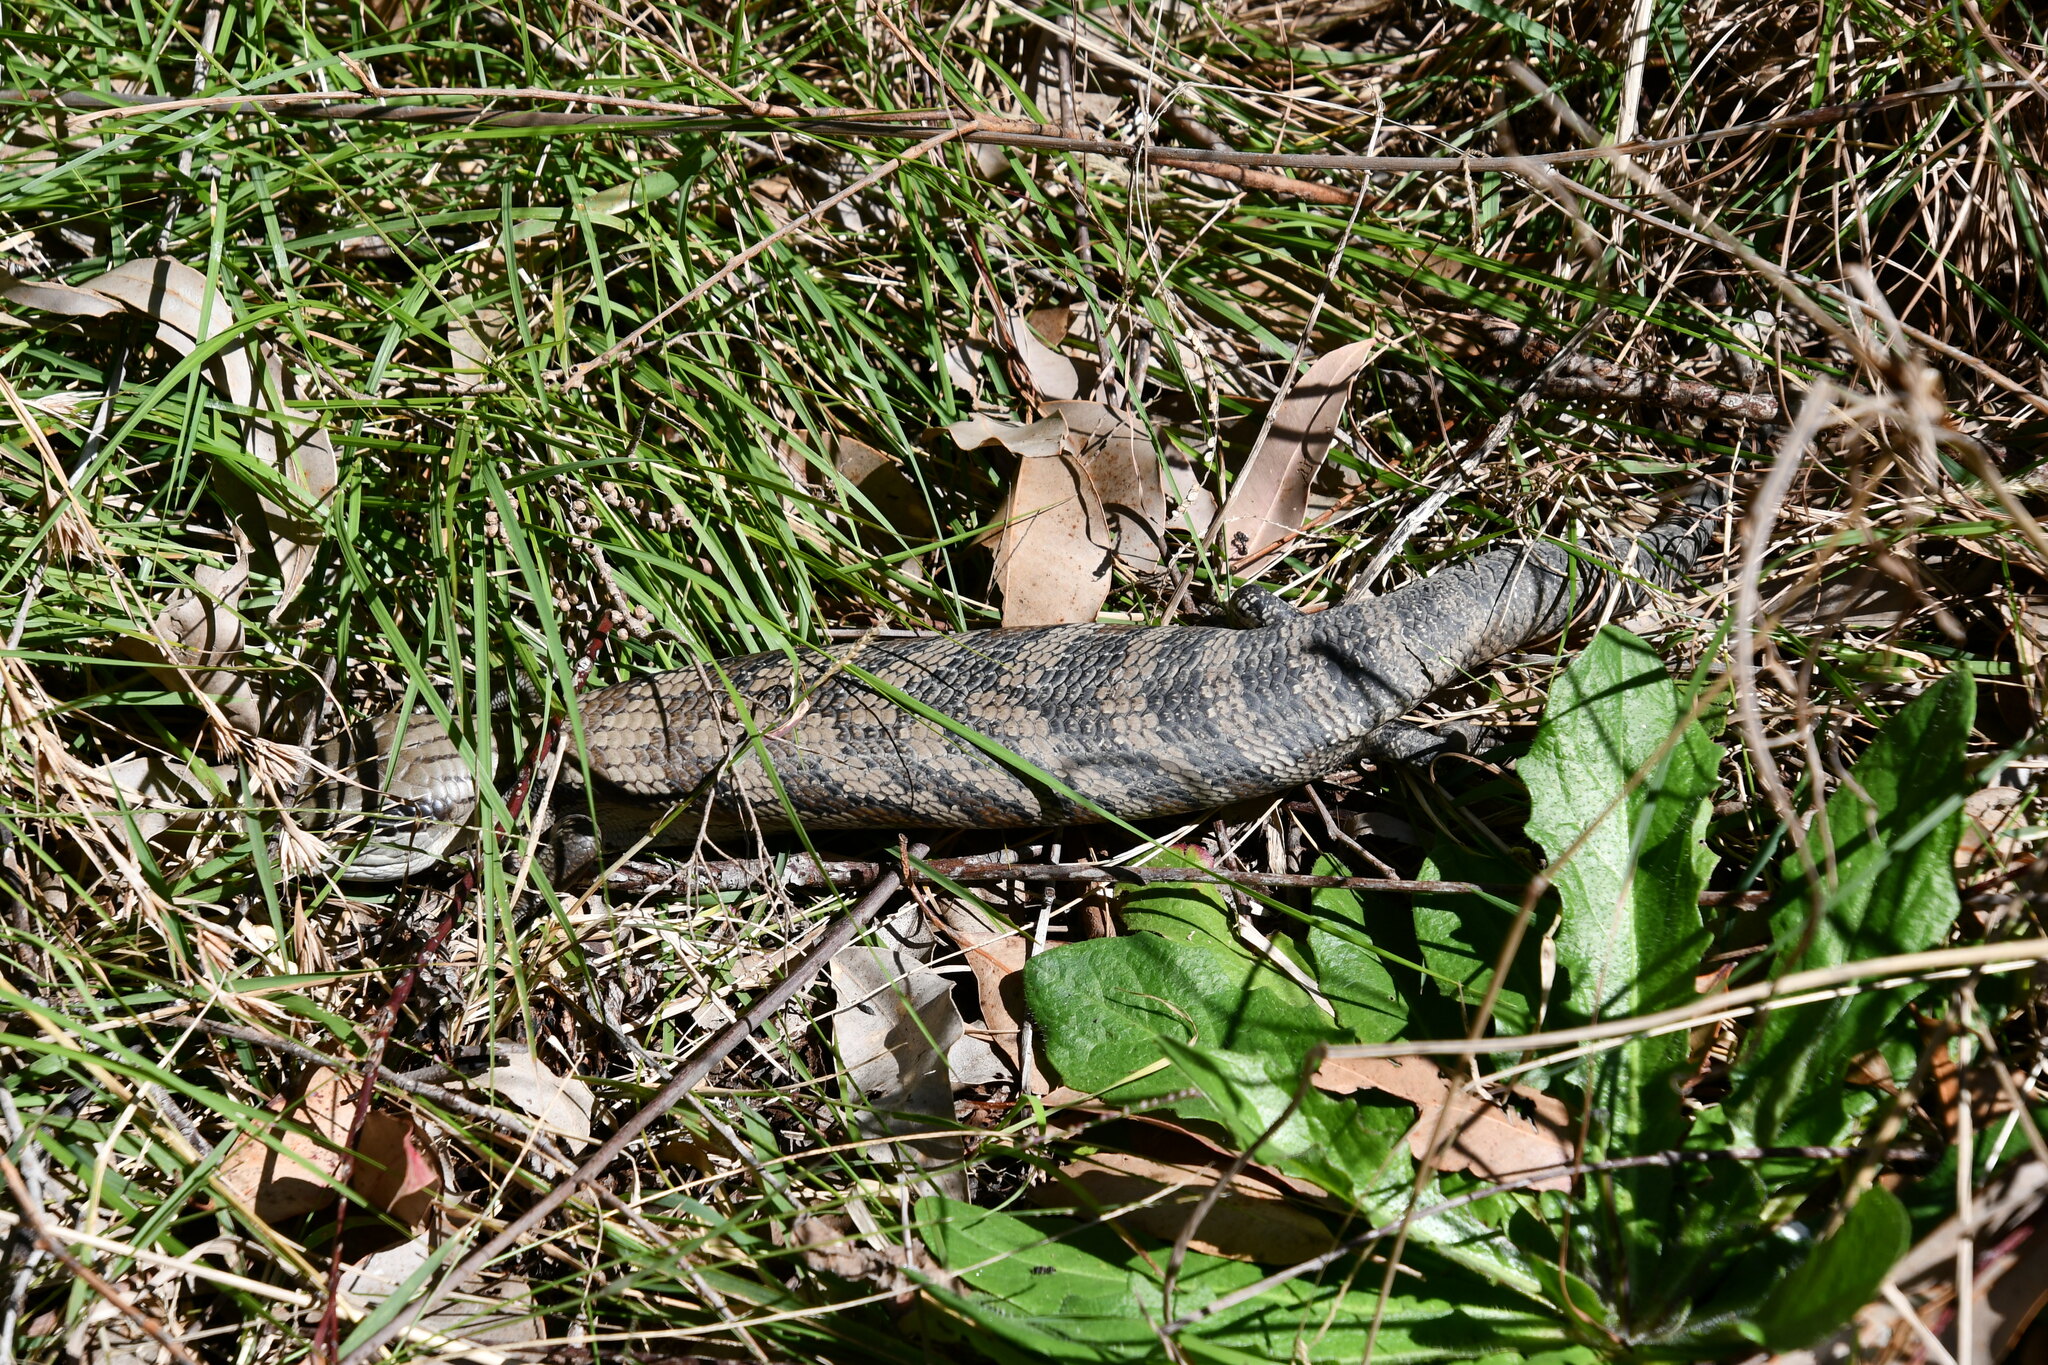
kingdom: Animalia
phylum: Chordata
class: Squamata
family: Scincidae
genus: Tiliqua
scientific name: Tiliqua scincoides
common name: Common bluetongue
